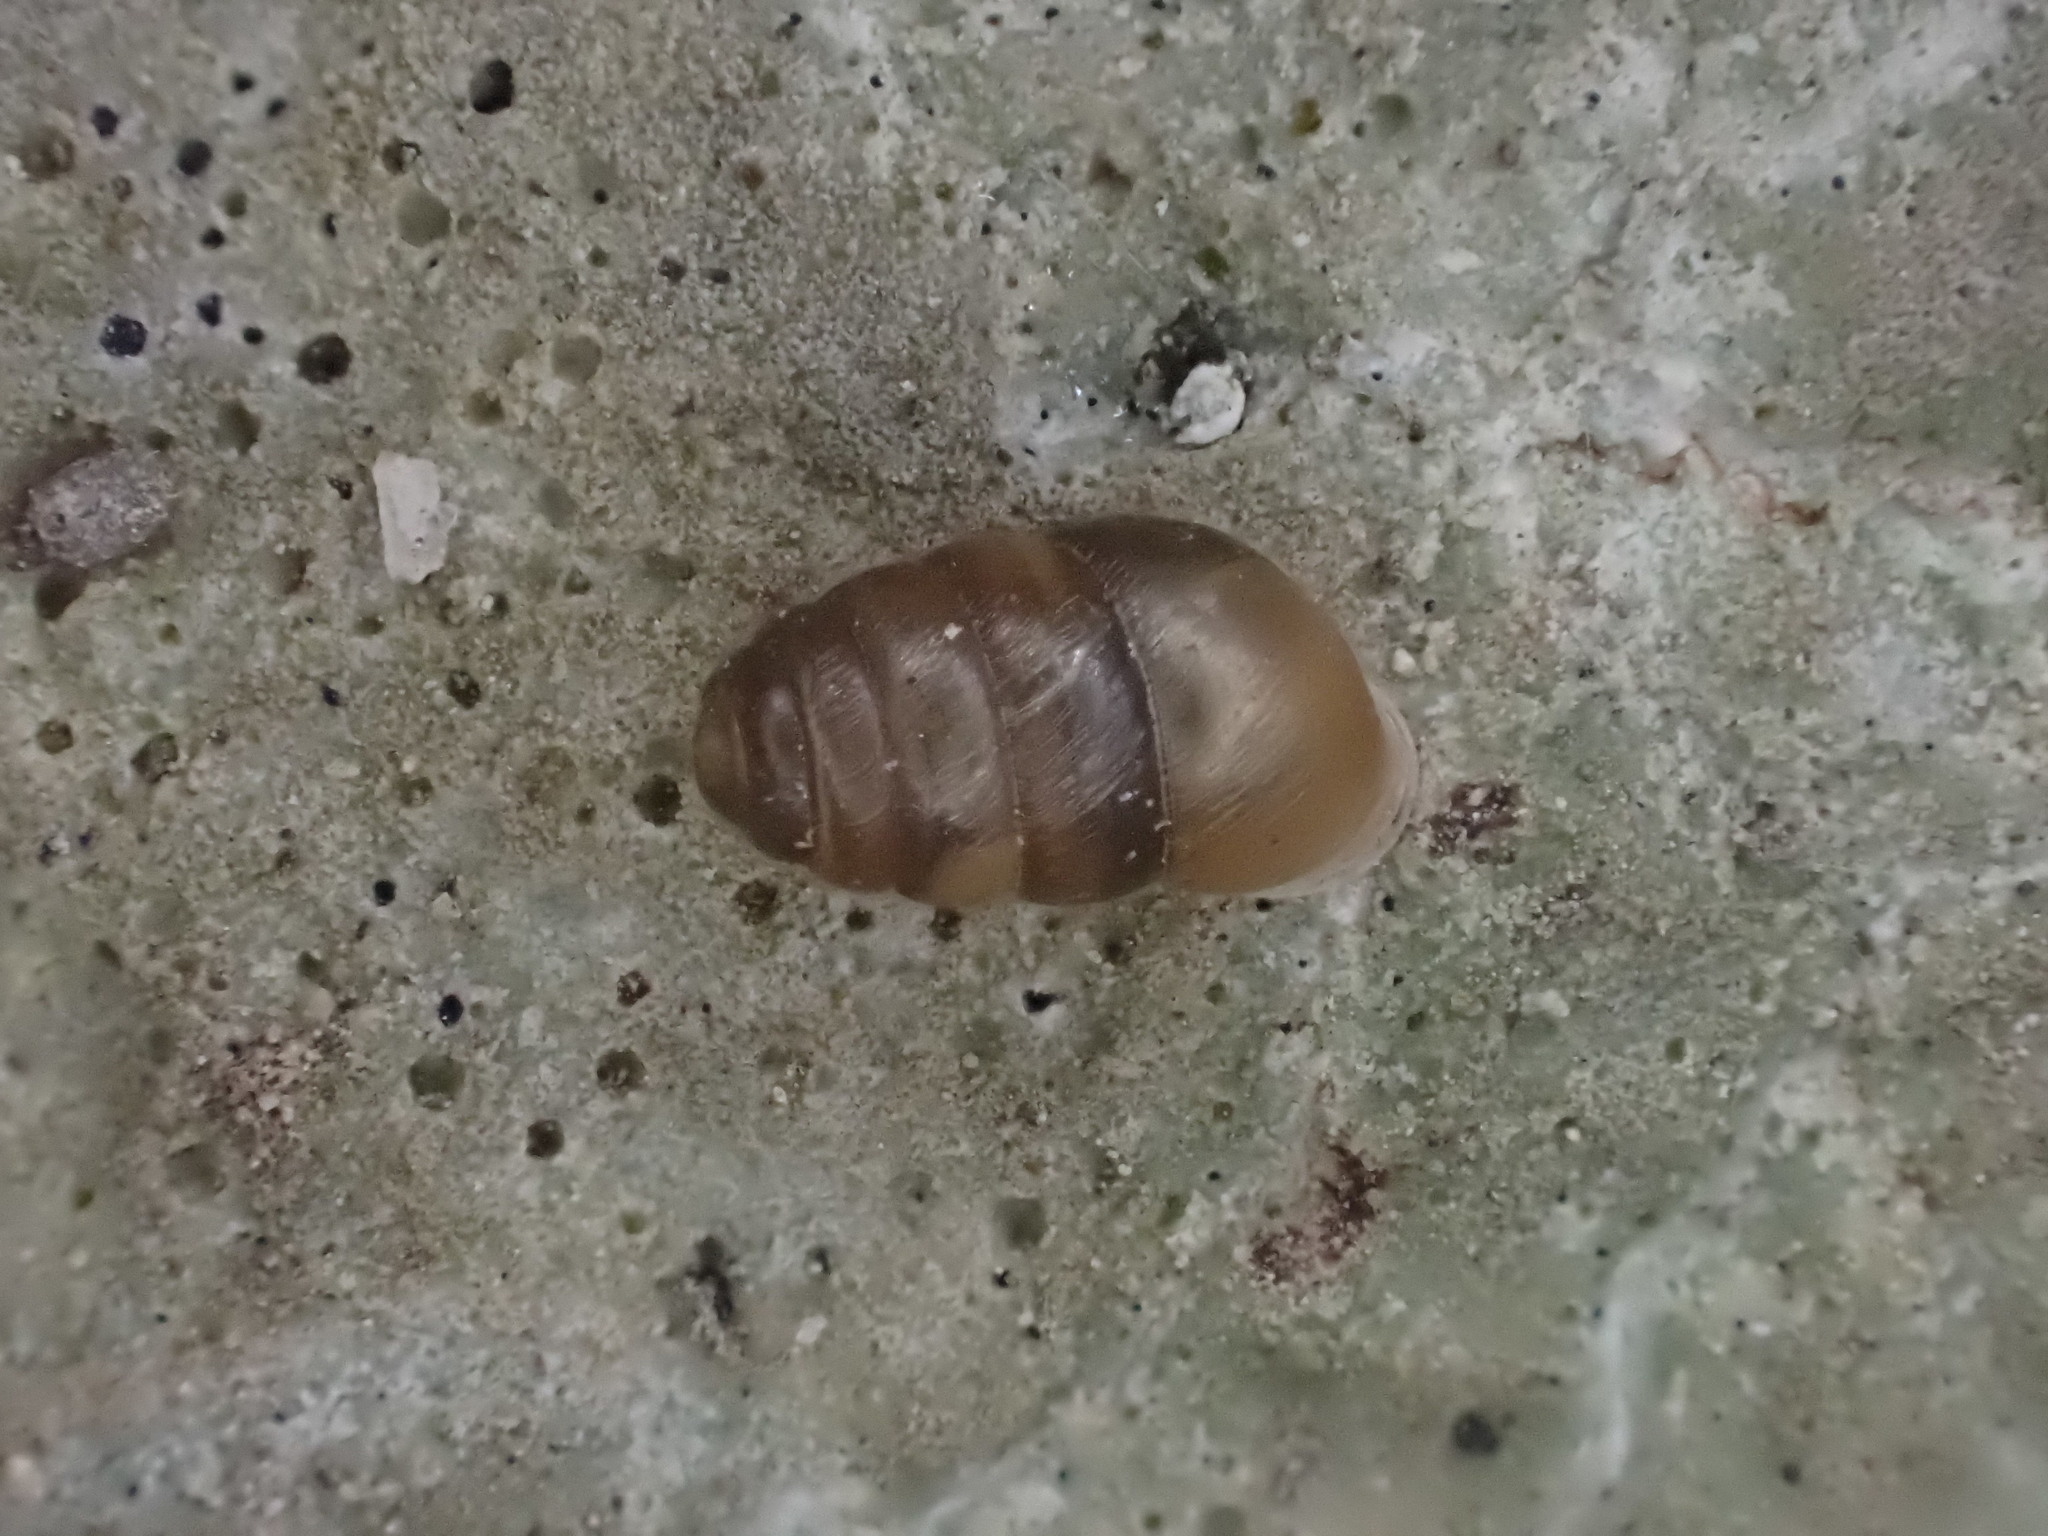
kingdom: Animalia
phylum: Mollusca
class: Gastropoda
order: Stylommatophora
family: Lauriidae
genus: Lauria
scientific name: Lauria cylindracea
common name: Common chrysalis snail
